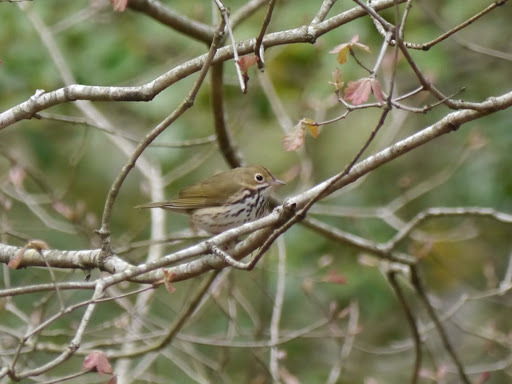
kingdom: Animalia
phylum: Chordata
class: Aves
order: Passeriformes
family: Parulidae
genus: Seiurus
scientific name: Seiurus aurocapilla
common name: Ovenbird
